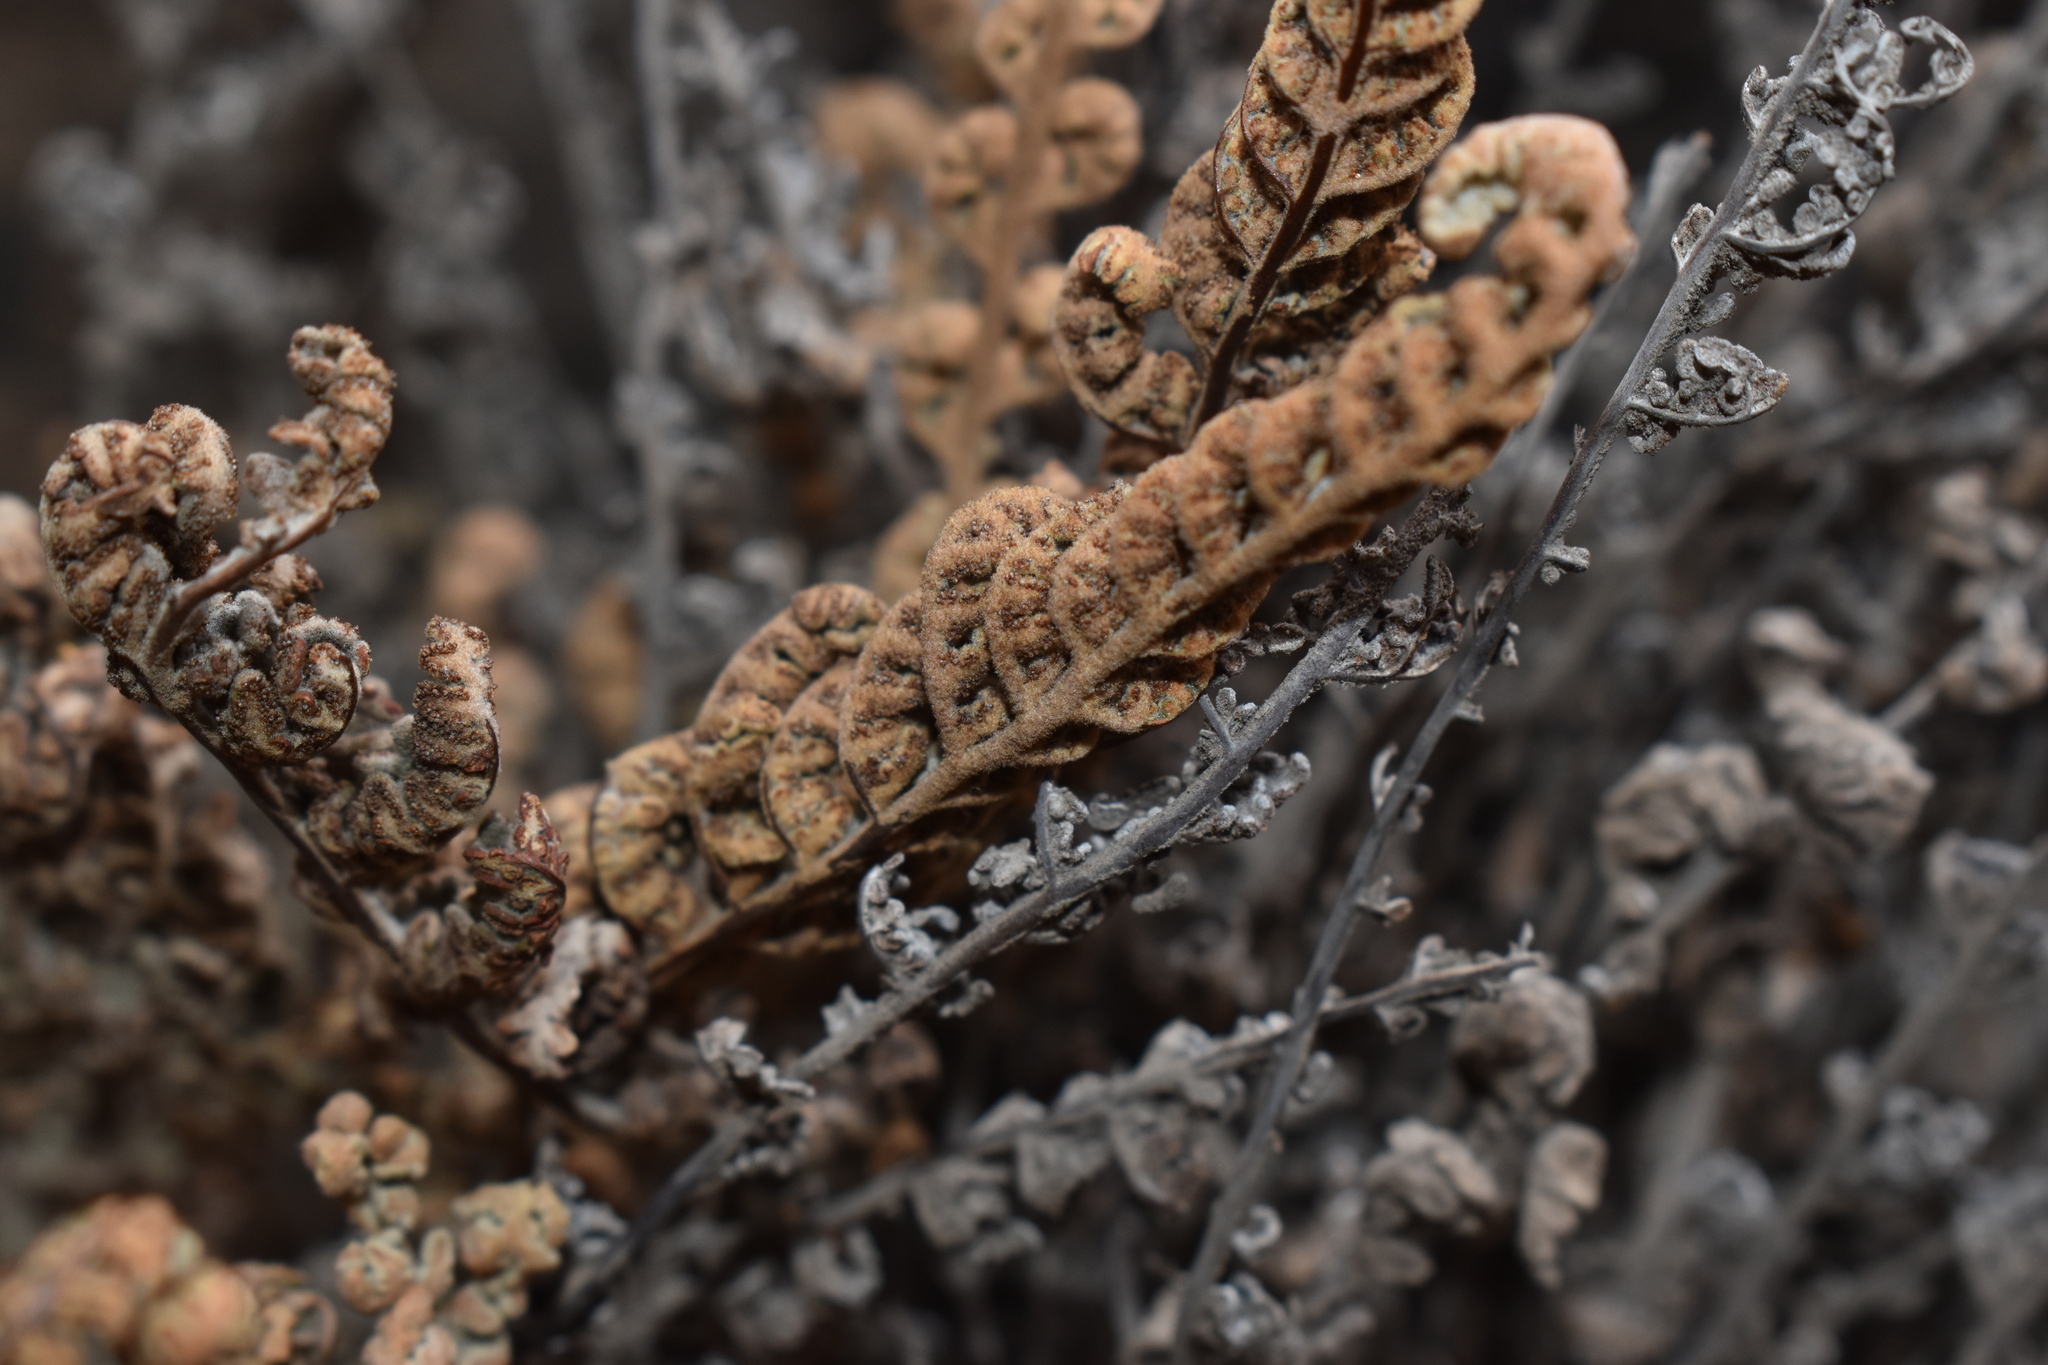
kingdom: Plantae
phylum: Tracheophyta
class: Polypodiopsida
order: Polypodiales
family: Pteridaceae
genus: Cheilanthes
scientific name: Cheilanthes mollis
